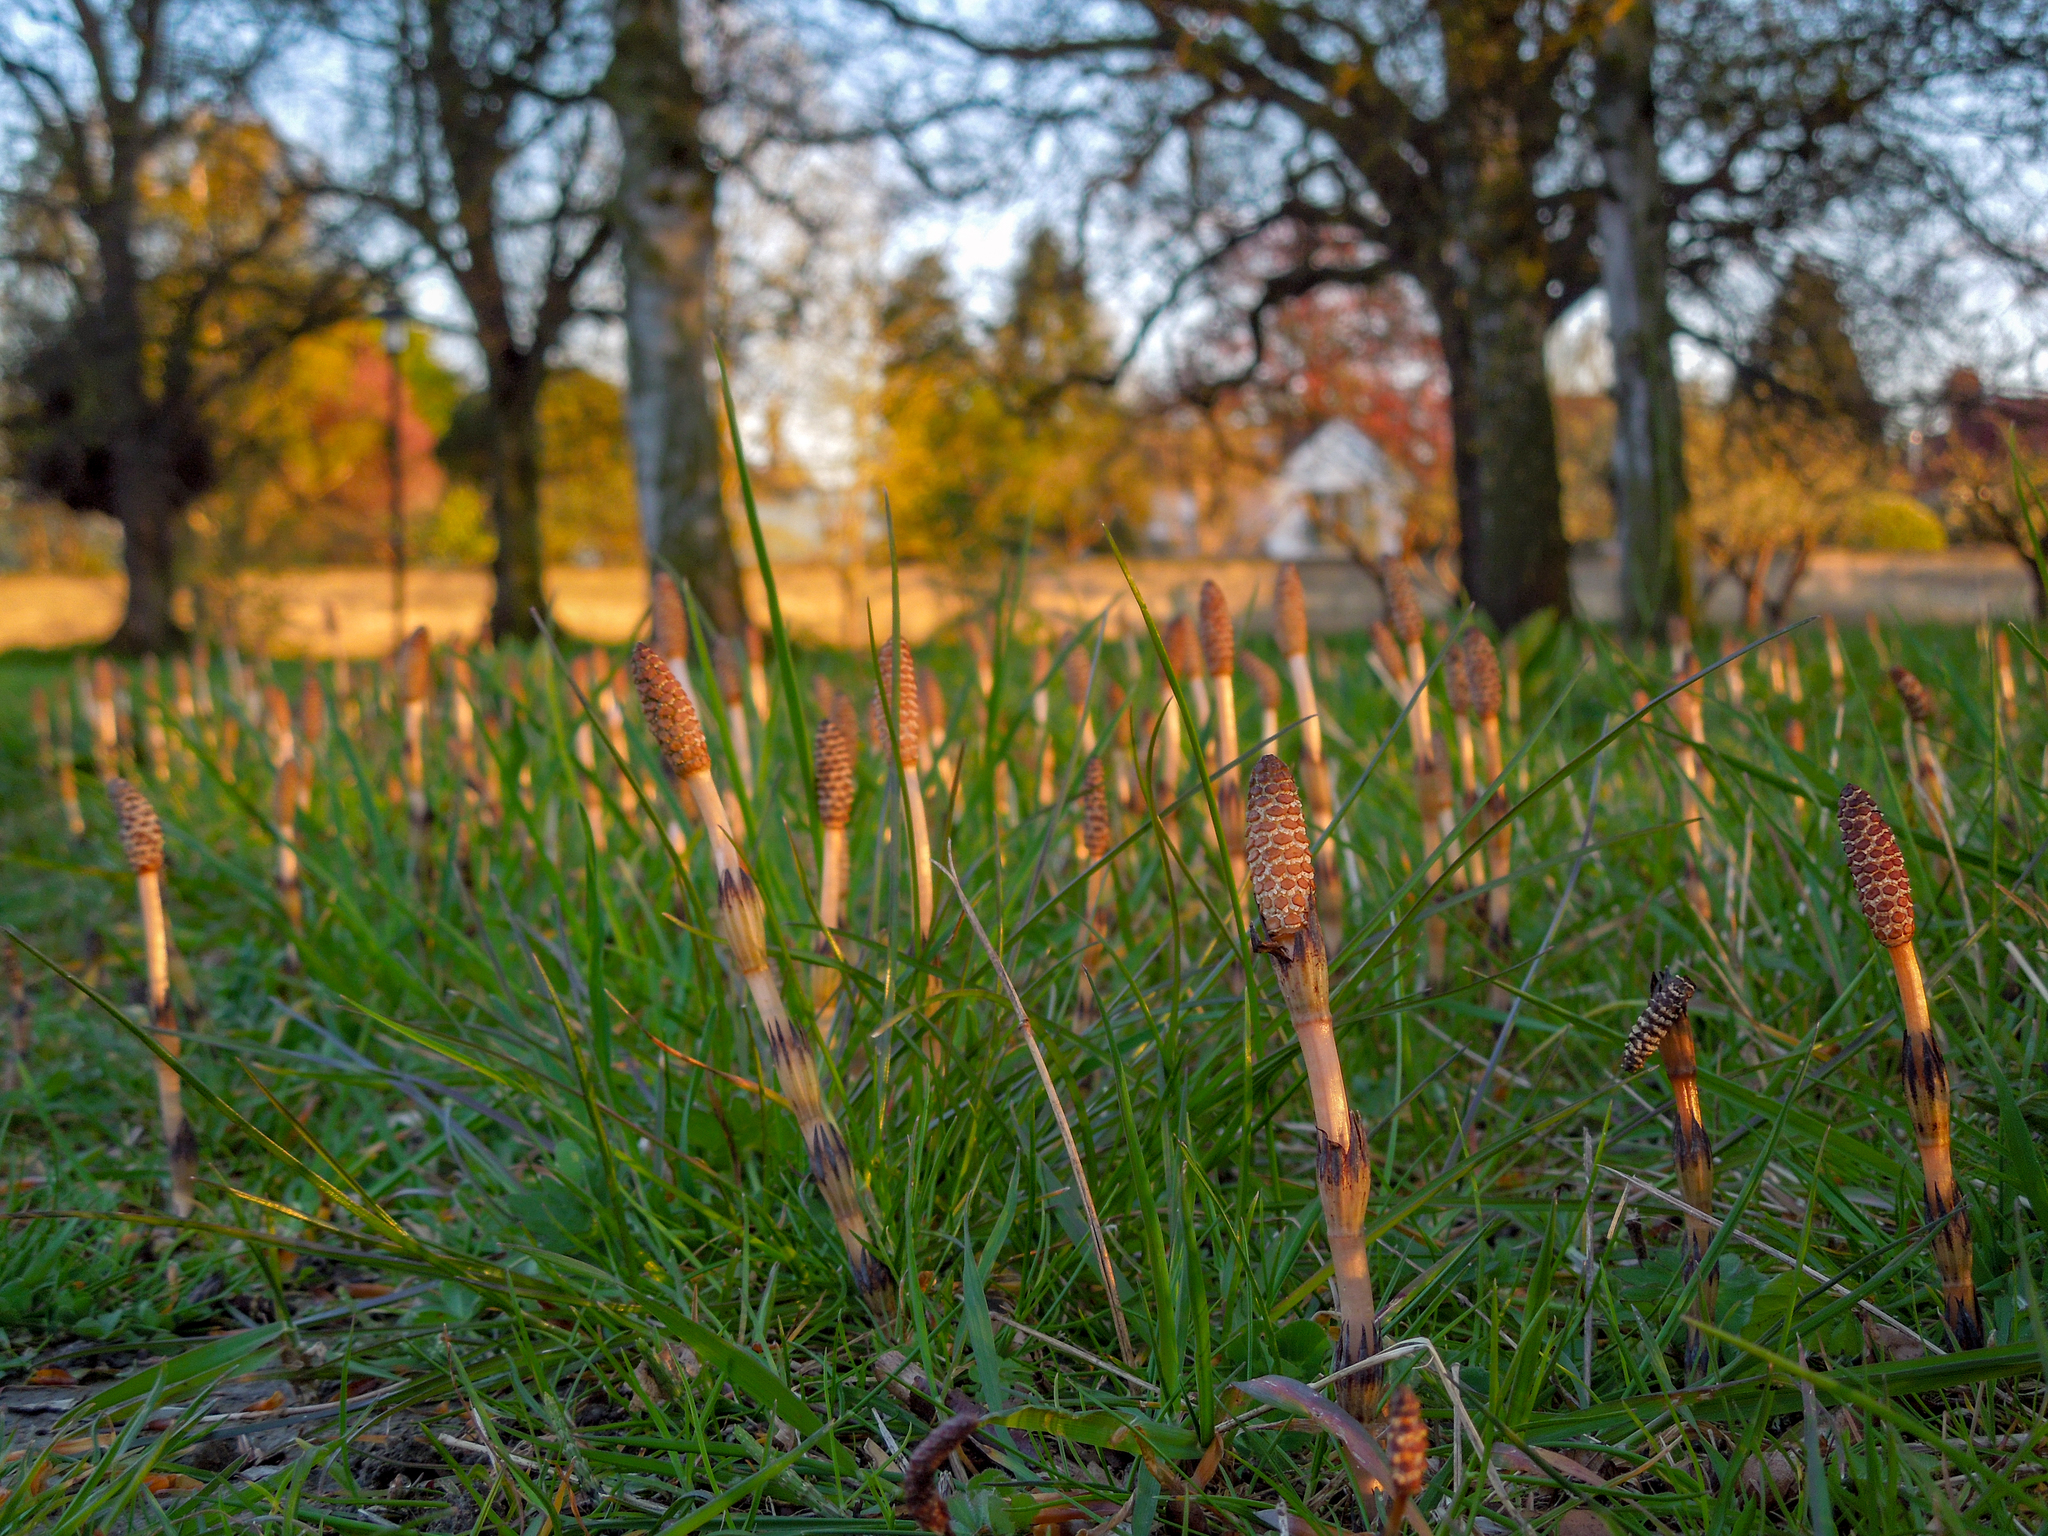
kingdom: Plantae
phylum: Tracheophyta
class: Polypodiopsida
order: Equisetales
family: Equisetaceae
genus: Equisetum
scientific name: Equisetum arvense
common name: Field horsetail
